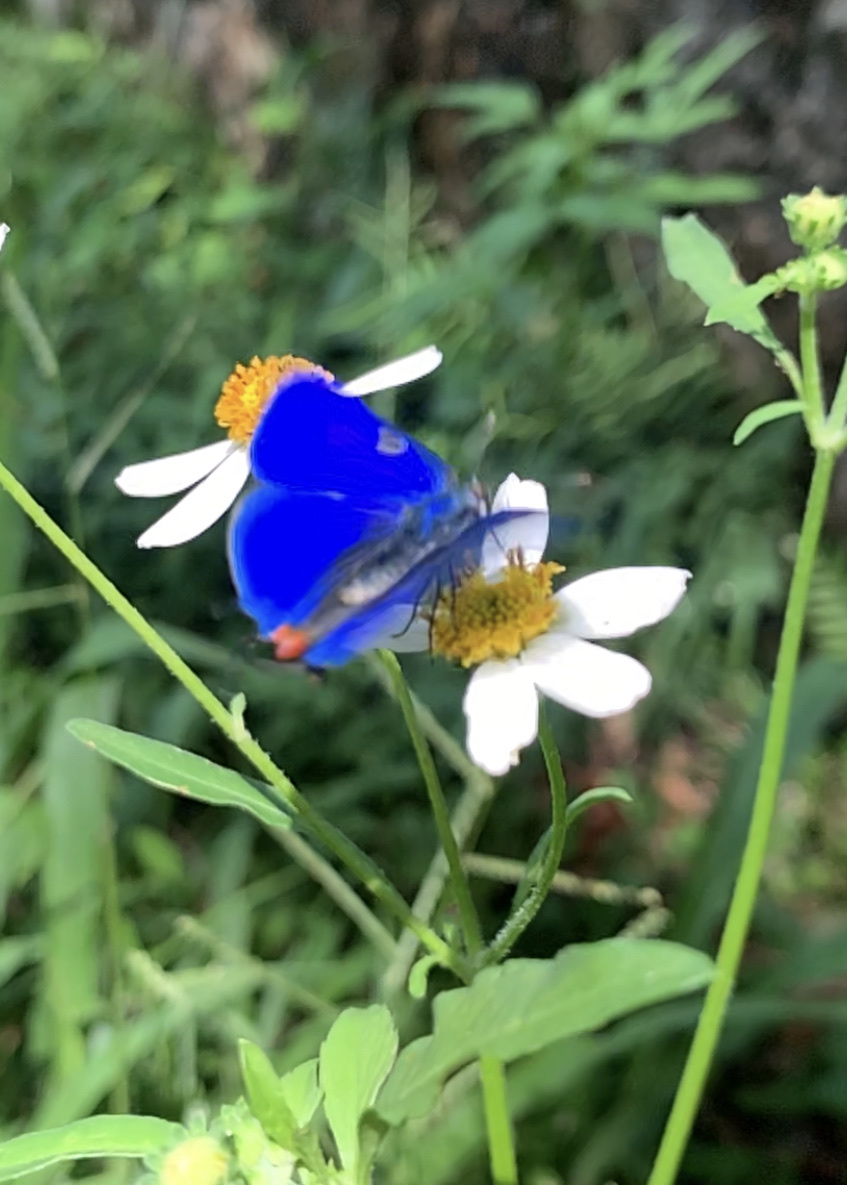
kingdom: Animalia
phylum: Arthropoda
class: Insecta
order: Lepidoptera
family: Lycaenidae
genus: Thecla
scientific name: Thecla bathildis
